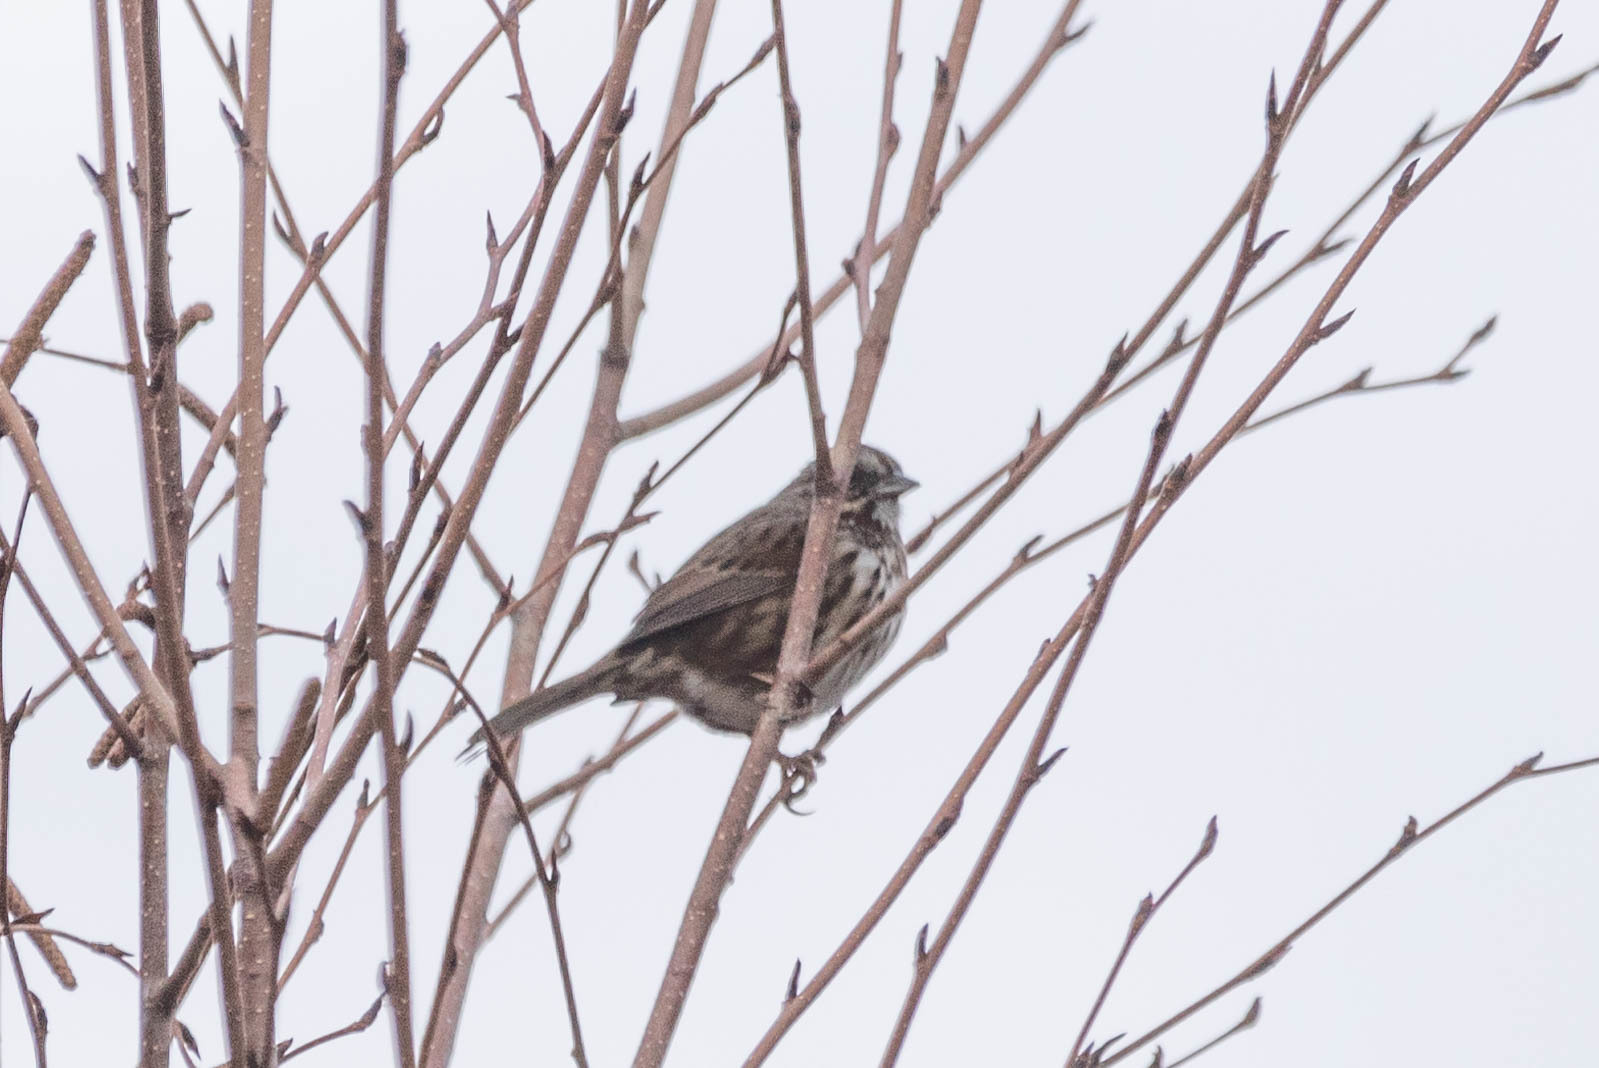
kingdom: Animalia
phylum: Chordata
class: Aves
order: Passeriformes
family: Passerellidae
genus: Melospiza
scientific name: Melospiza melodia
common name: Song sparrow
